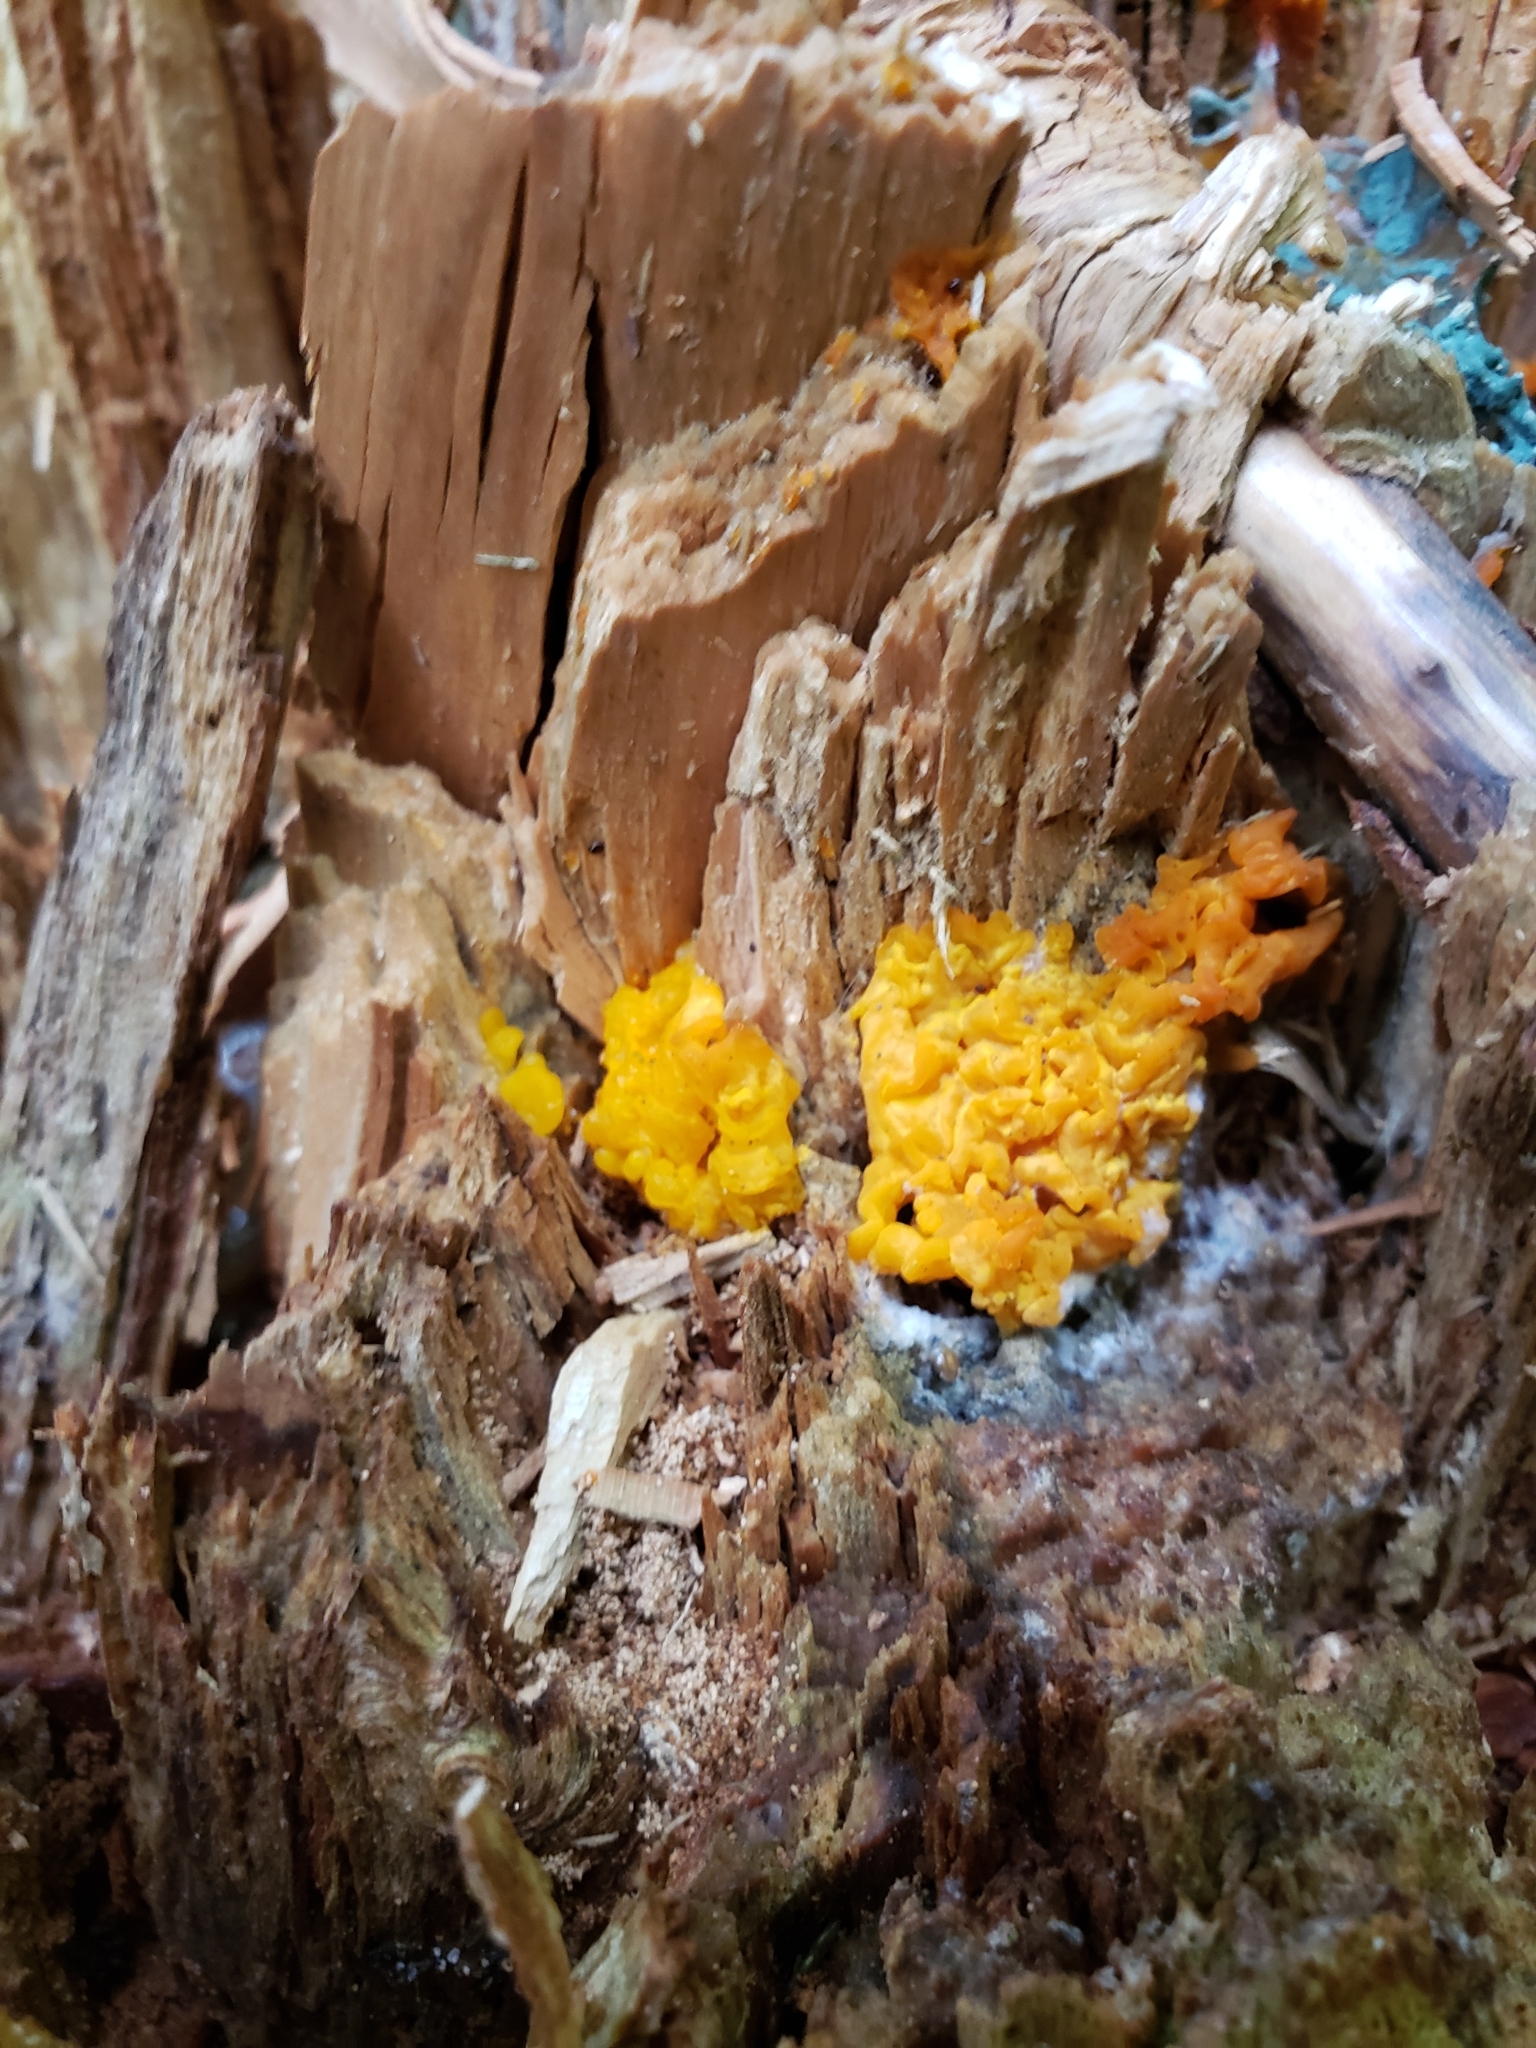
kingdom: Fungi
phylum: Basidiomycota
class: Dacrymycetes
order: Dacrymycetales
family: Dacrymycetaceae
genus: Dacrymyces
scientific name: Dacrymyces chrysospermus
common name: Orange jelly spot
